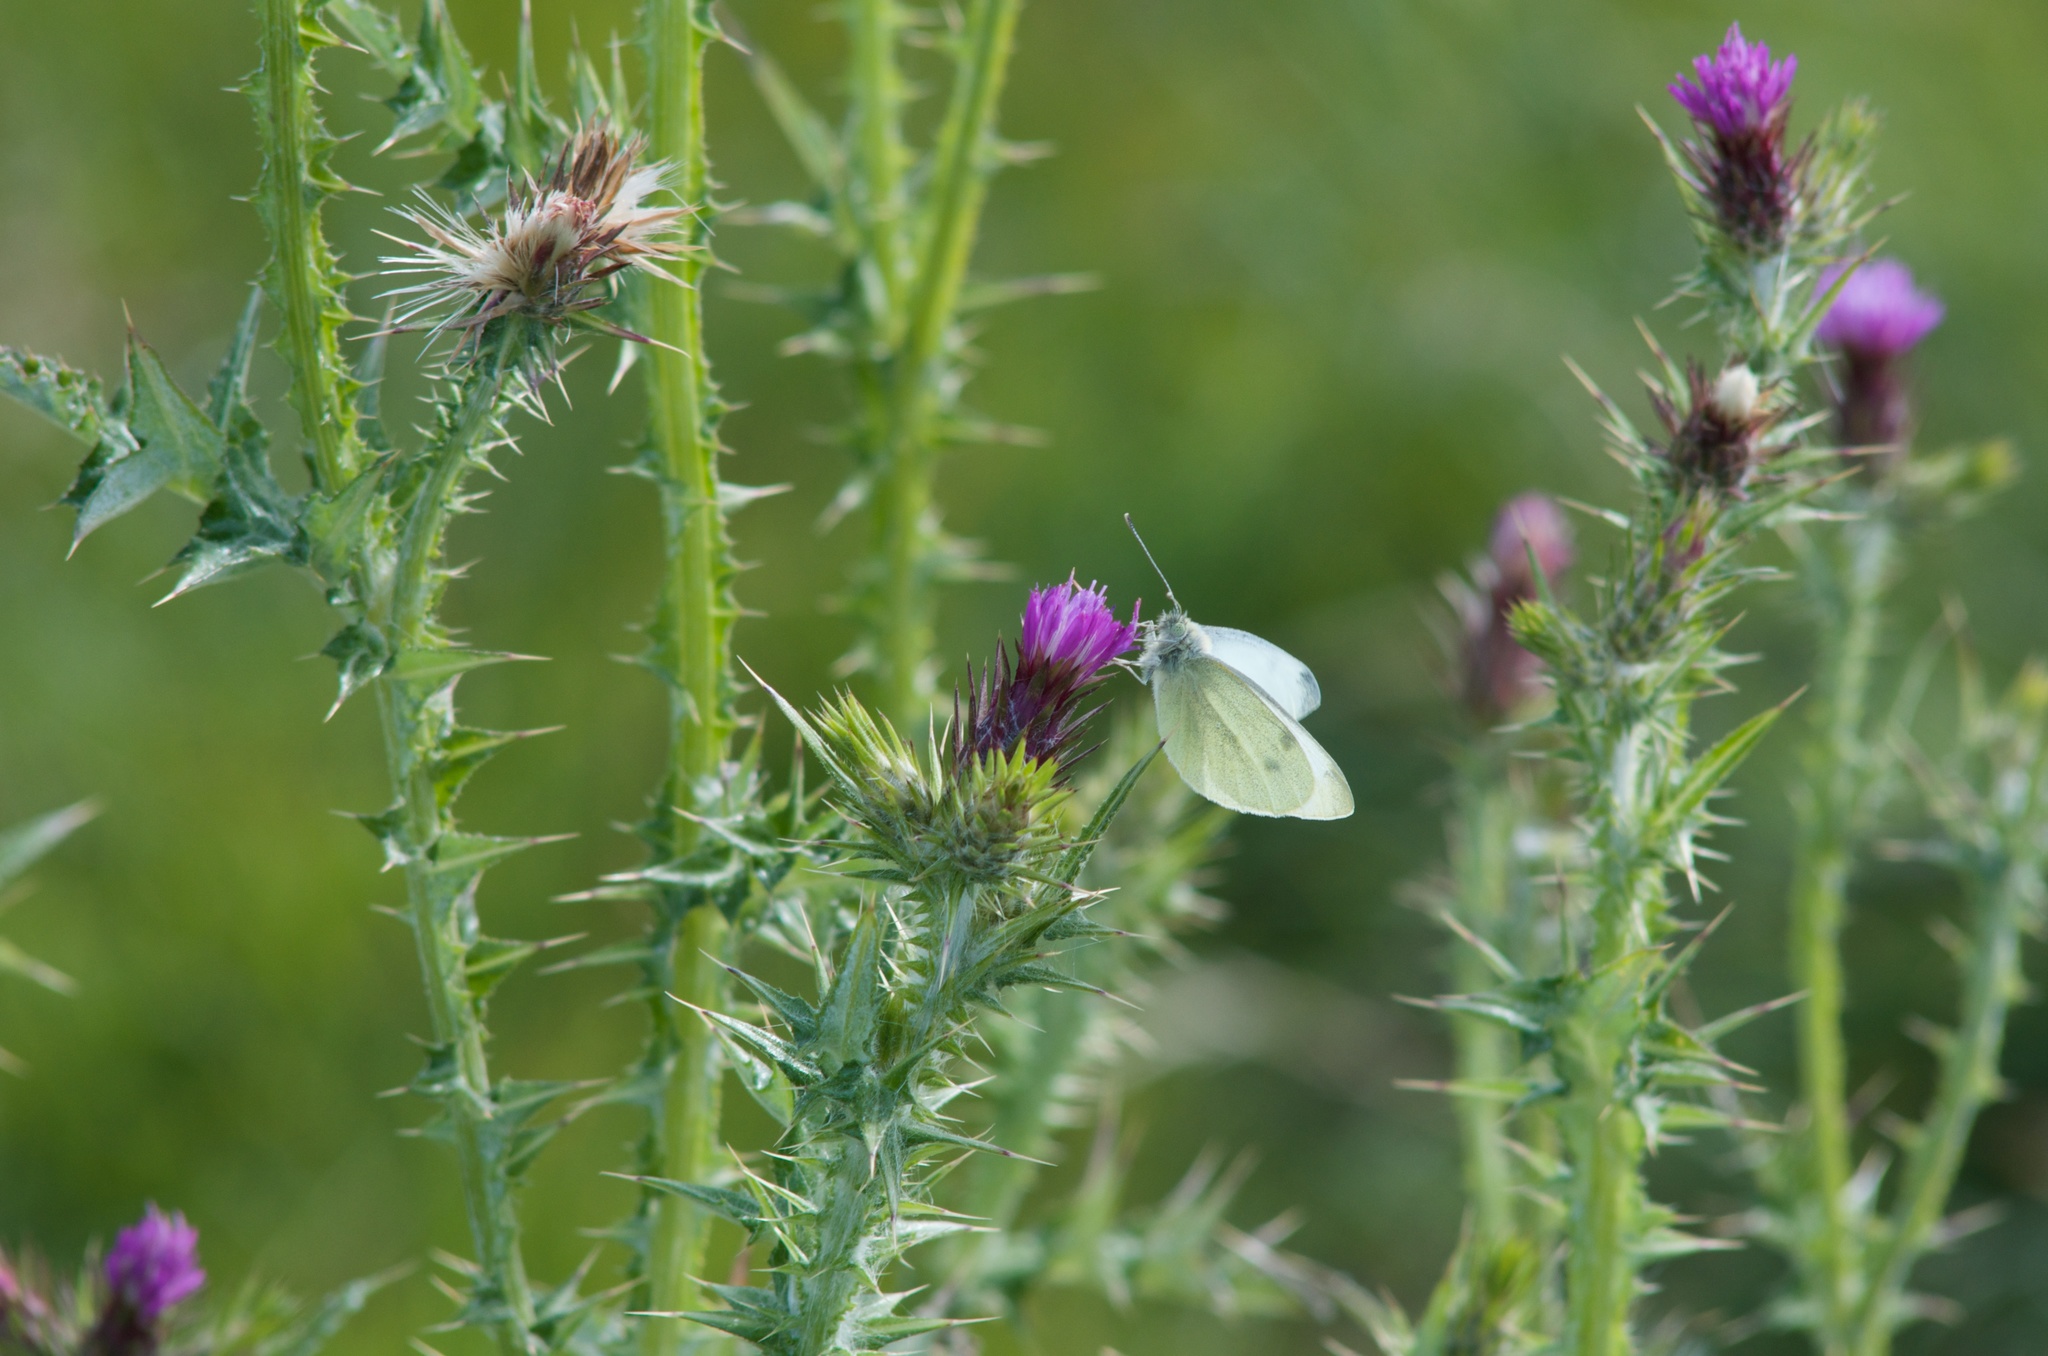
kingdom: Animalia
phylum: Arthropoda
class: Insecta
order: Lepidoptera
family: Pieridae
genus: Pieris
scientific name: Pieris rapae
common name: Small white
